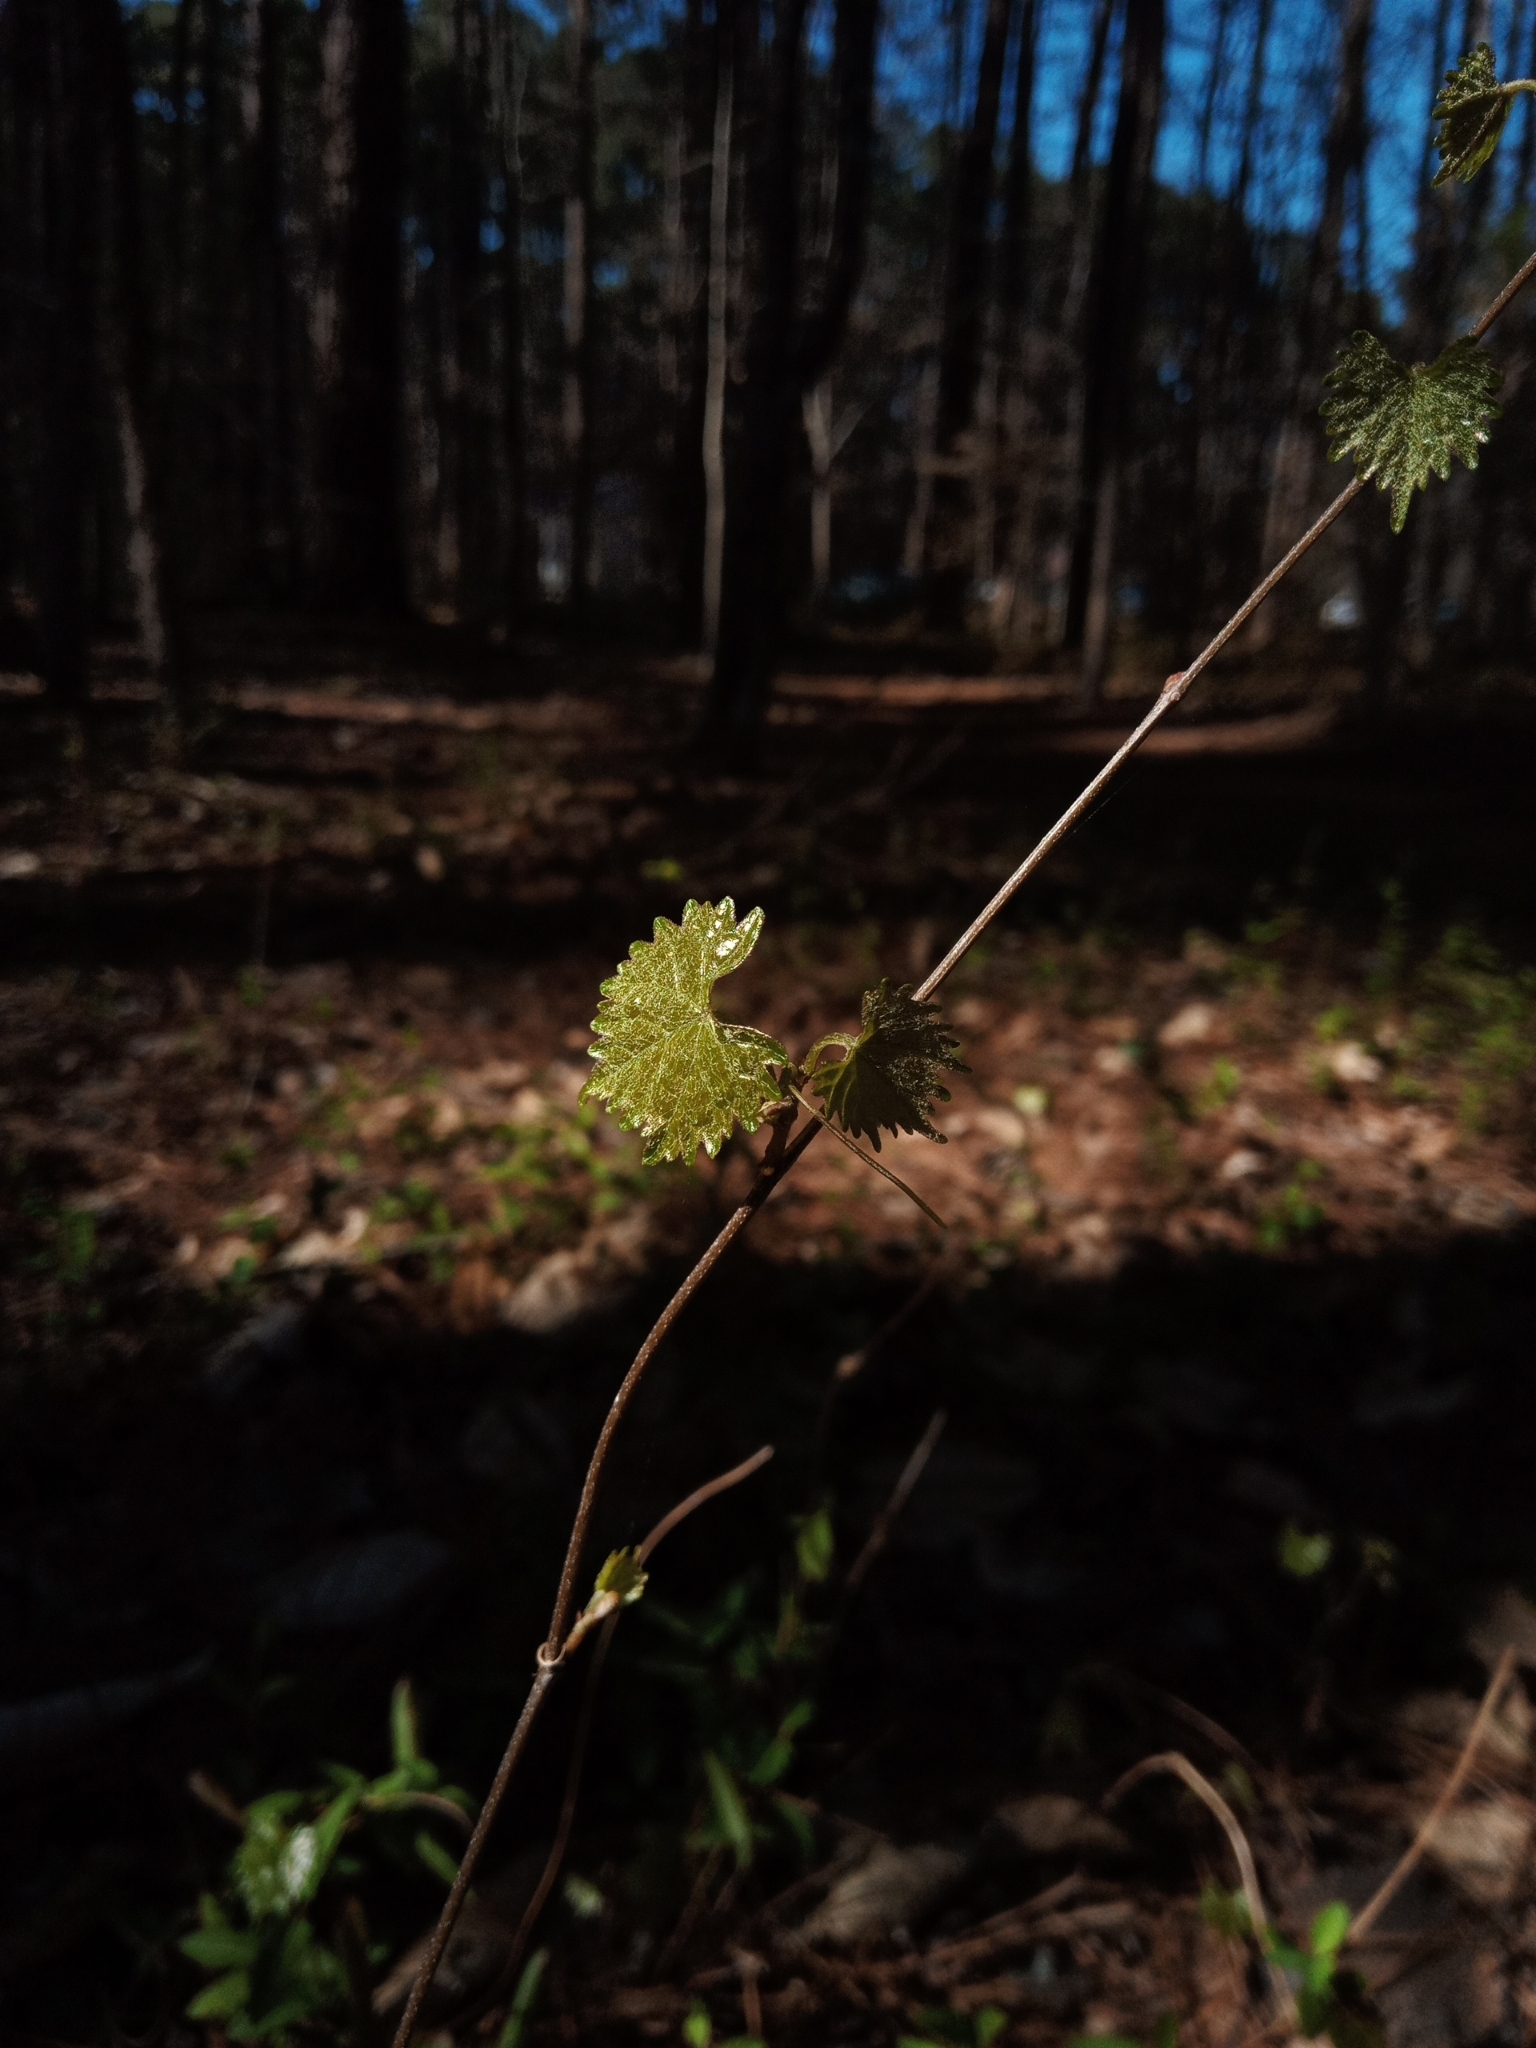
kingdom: Plantae
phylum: Tracheophyta
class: Magnoliopsida
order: Vitales
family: Vitaceae
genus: Vitis
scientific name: Vitis rotundifolia
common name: Muscadine grape
